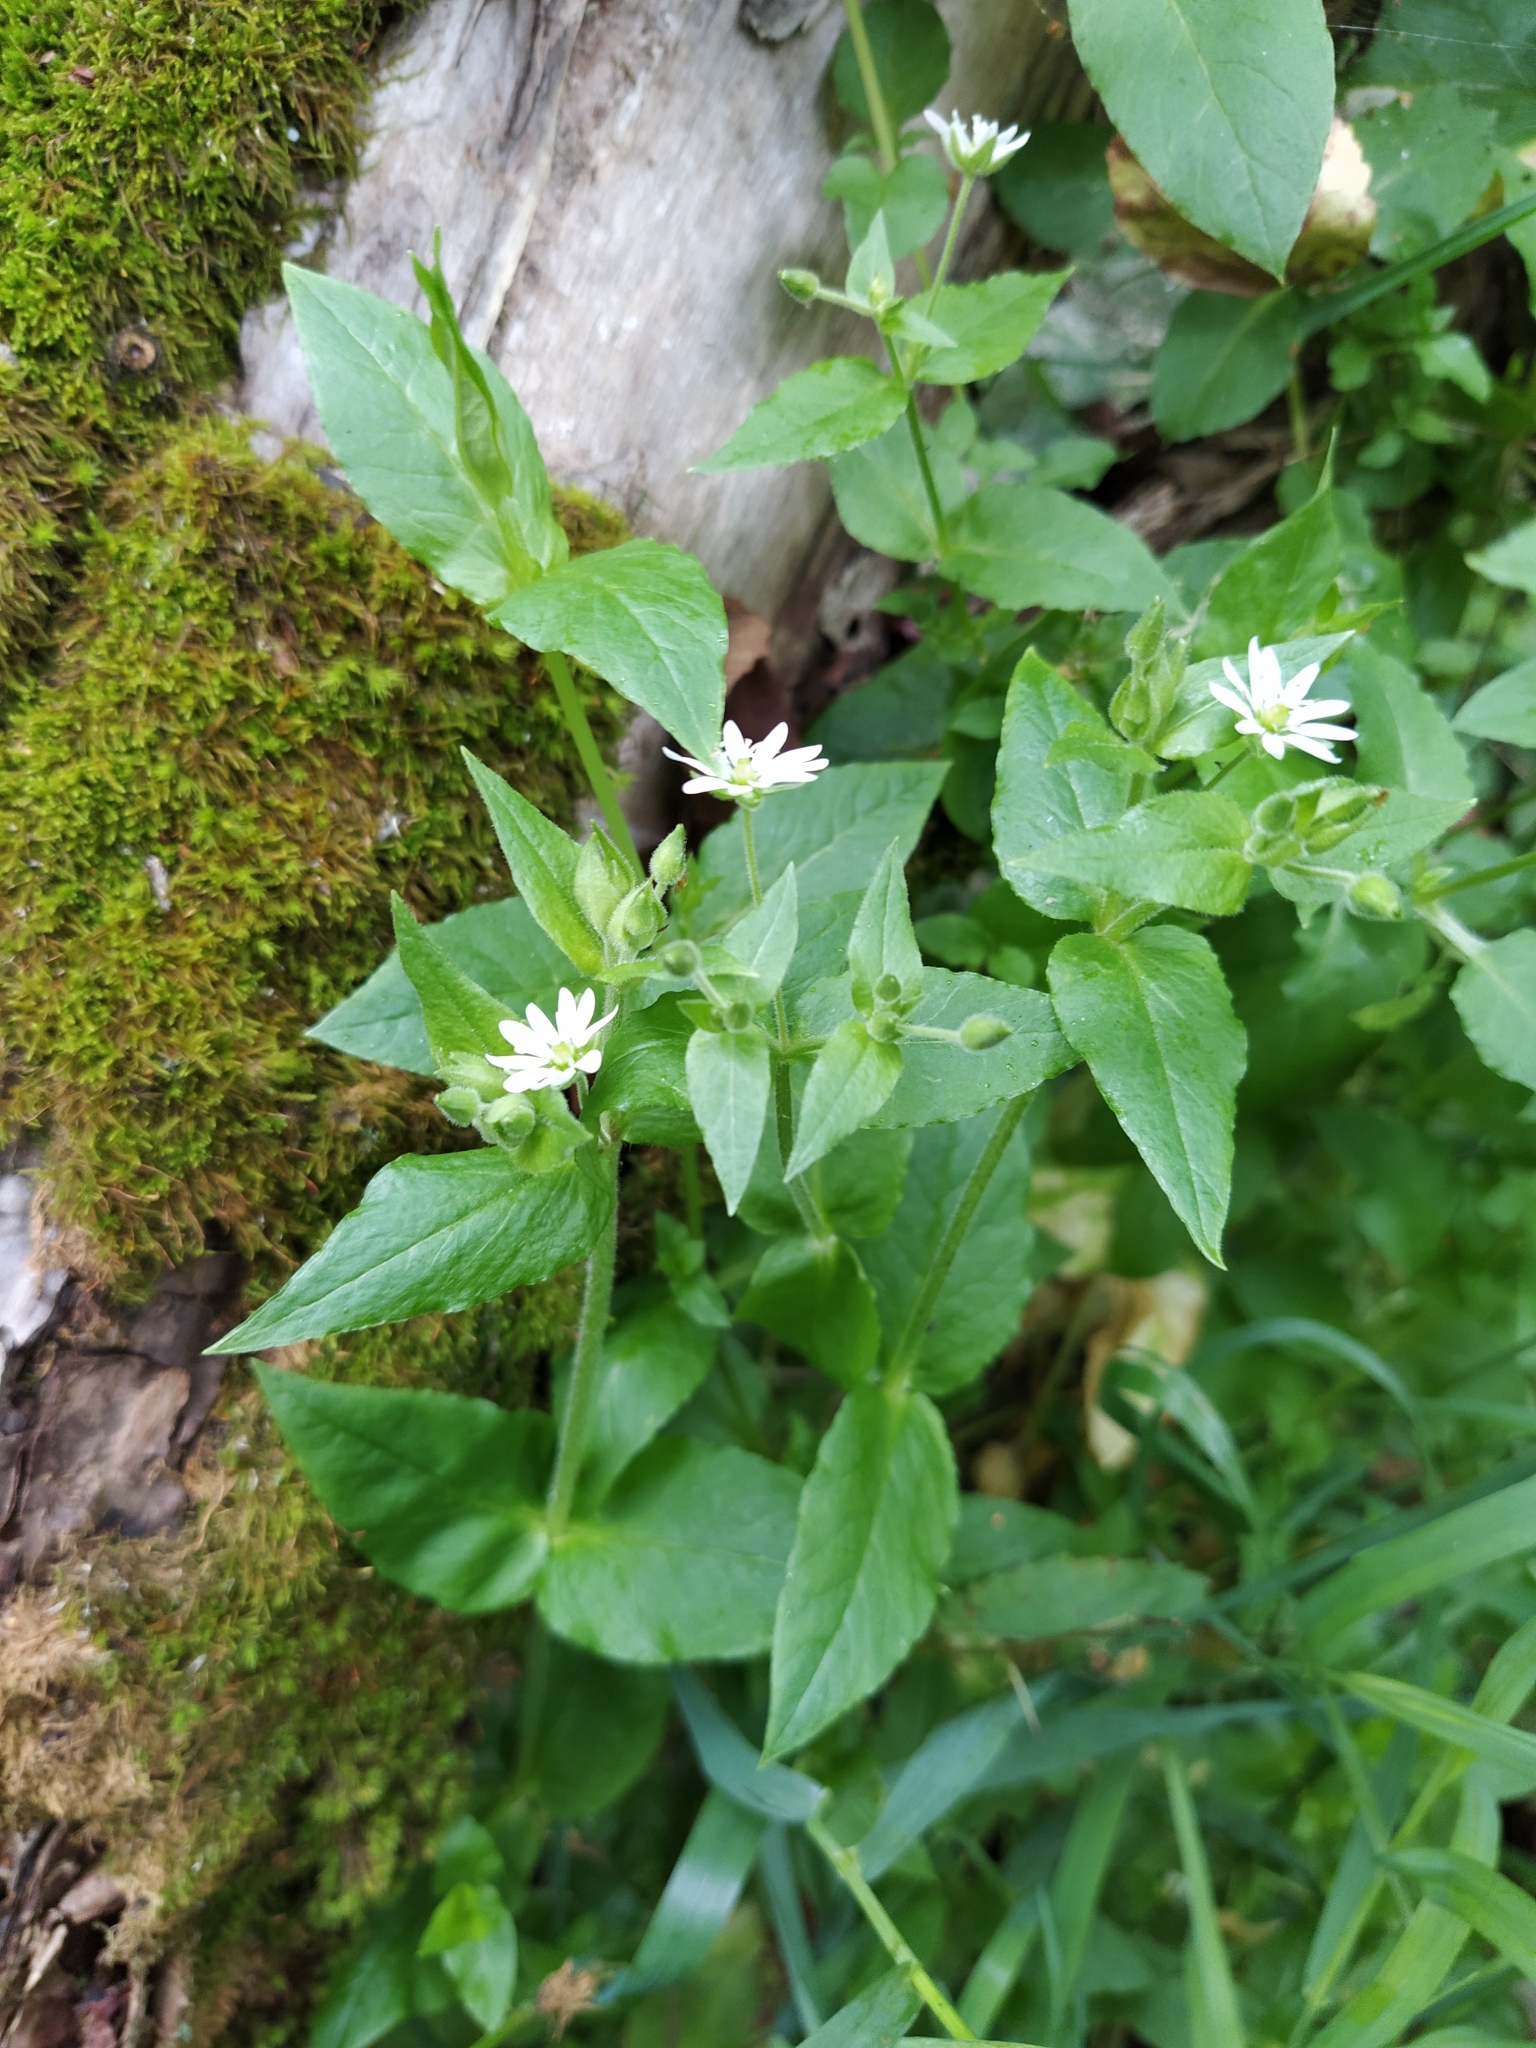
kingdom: Plantae
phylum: Tracheophyta
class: Magnoliopsida
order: Caryophyllales
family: Caryophyllaceae
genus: Stellaria
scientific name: Stellaria aquatica
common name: Water chickweed
